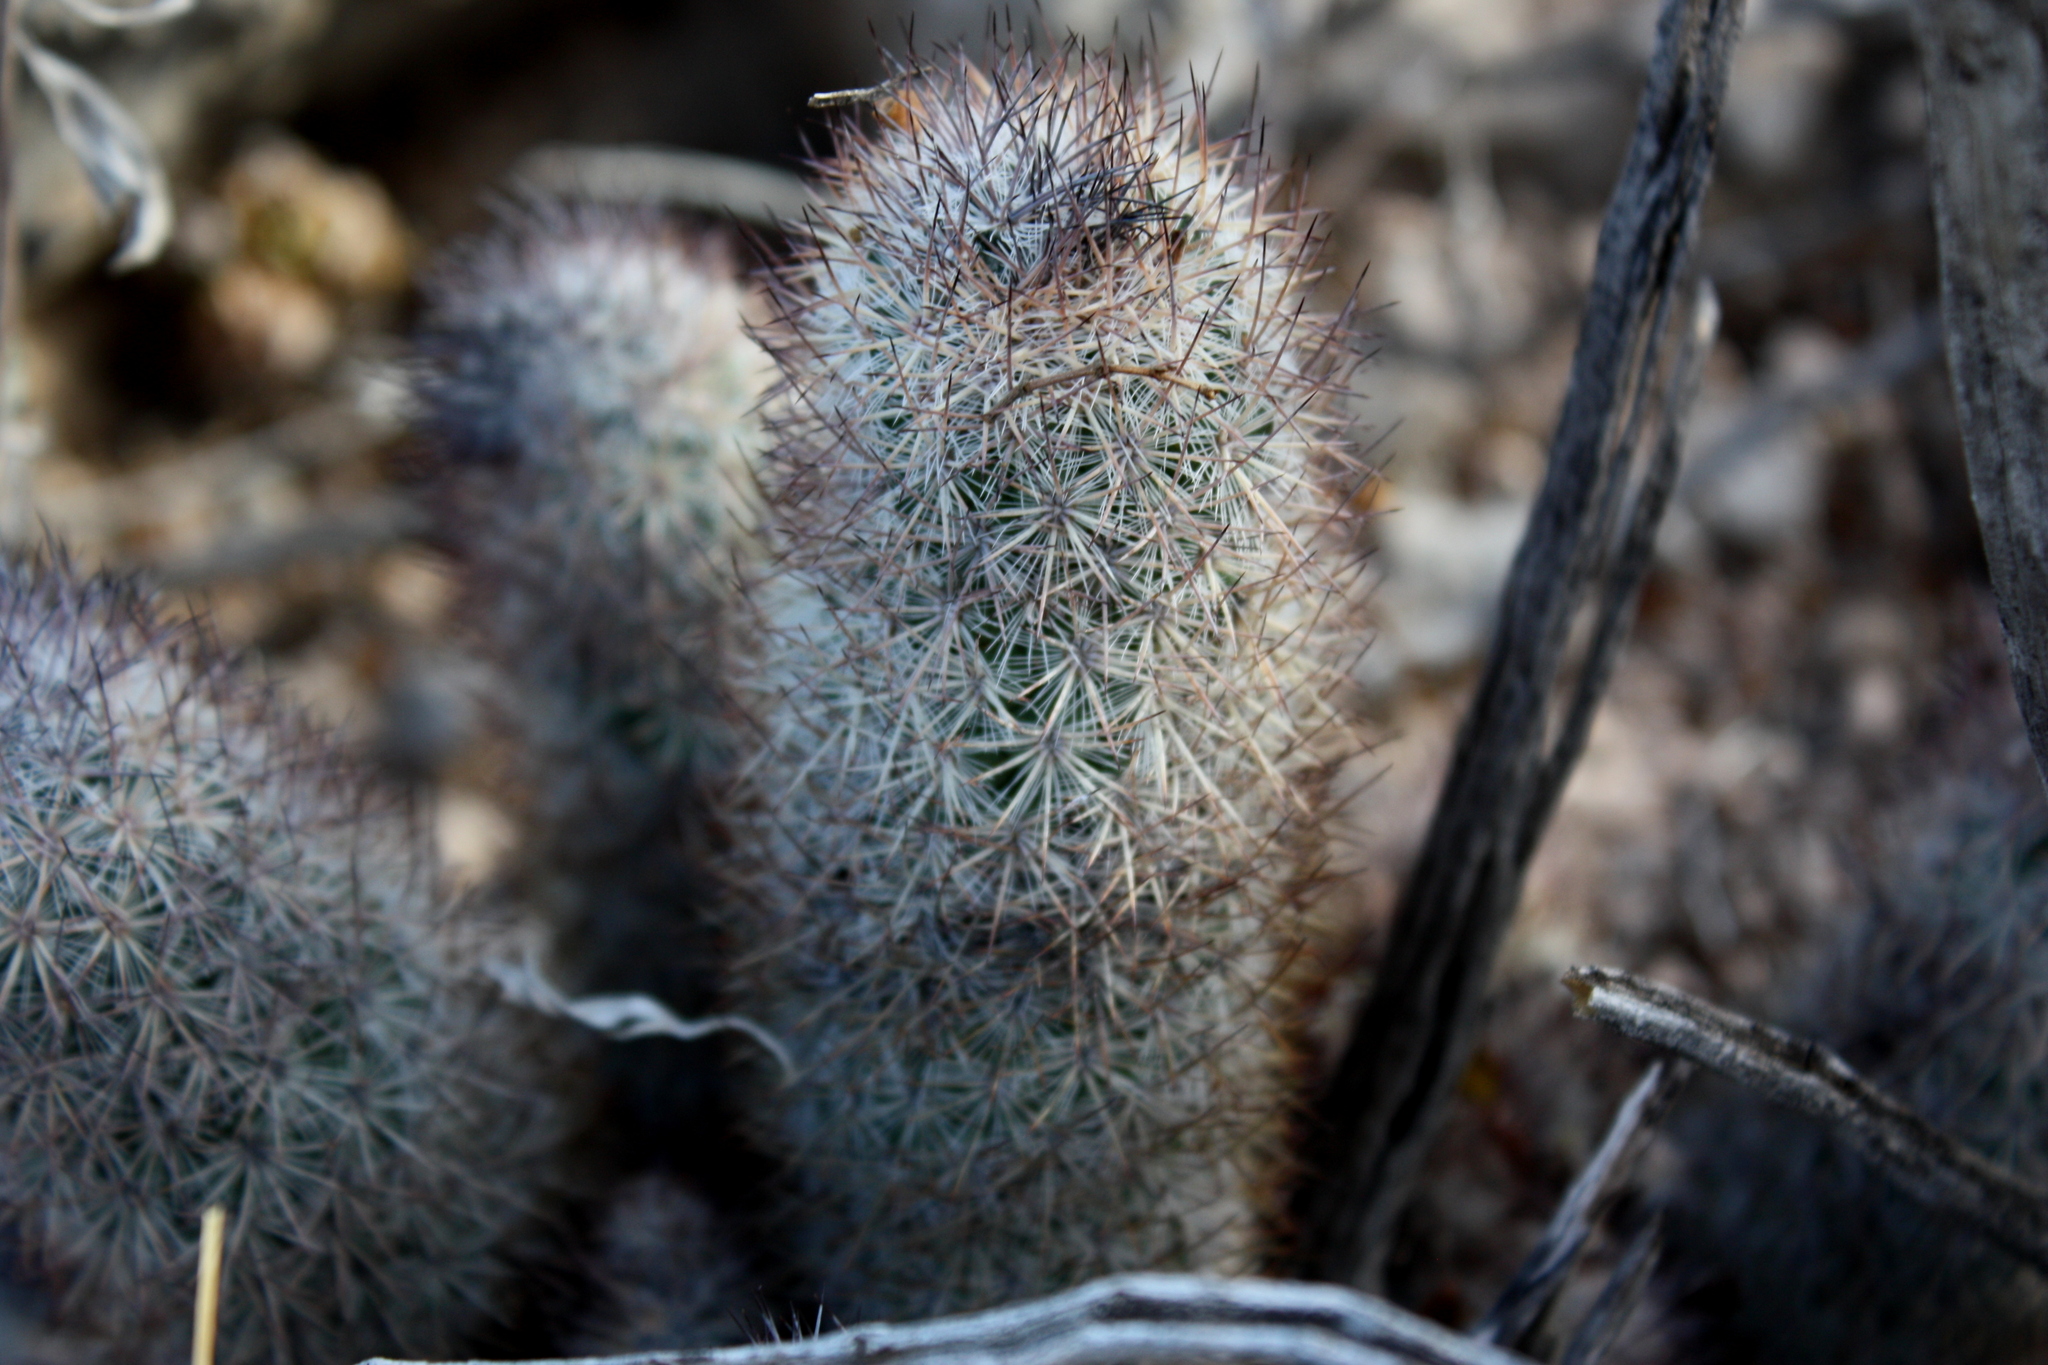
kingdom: Plantae
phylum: Tracheophyta
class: Magnoliopsida
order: Caryophyllales
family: Cactaceae
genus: Mammillaria
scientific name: Mammillaria pottsii
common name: Pott's nipple-cactus
